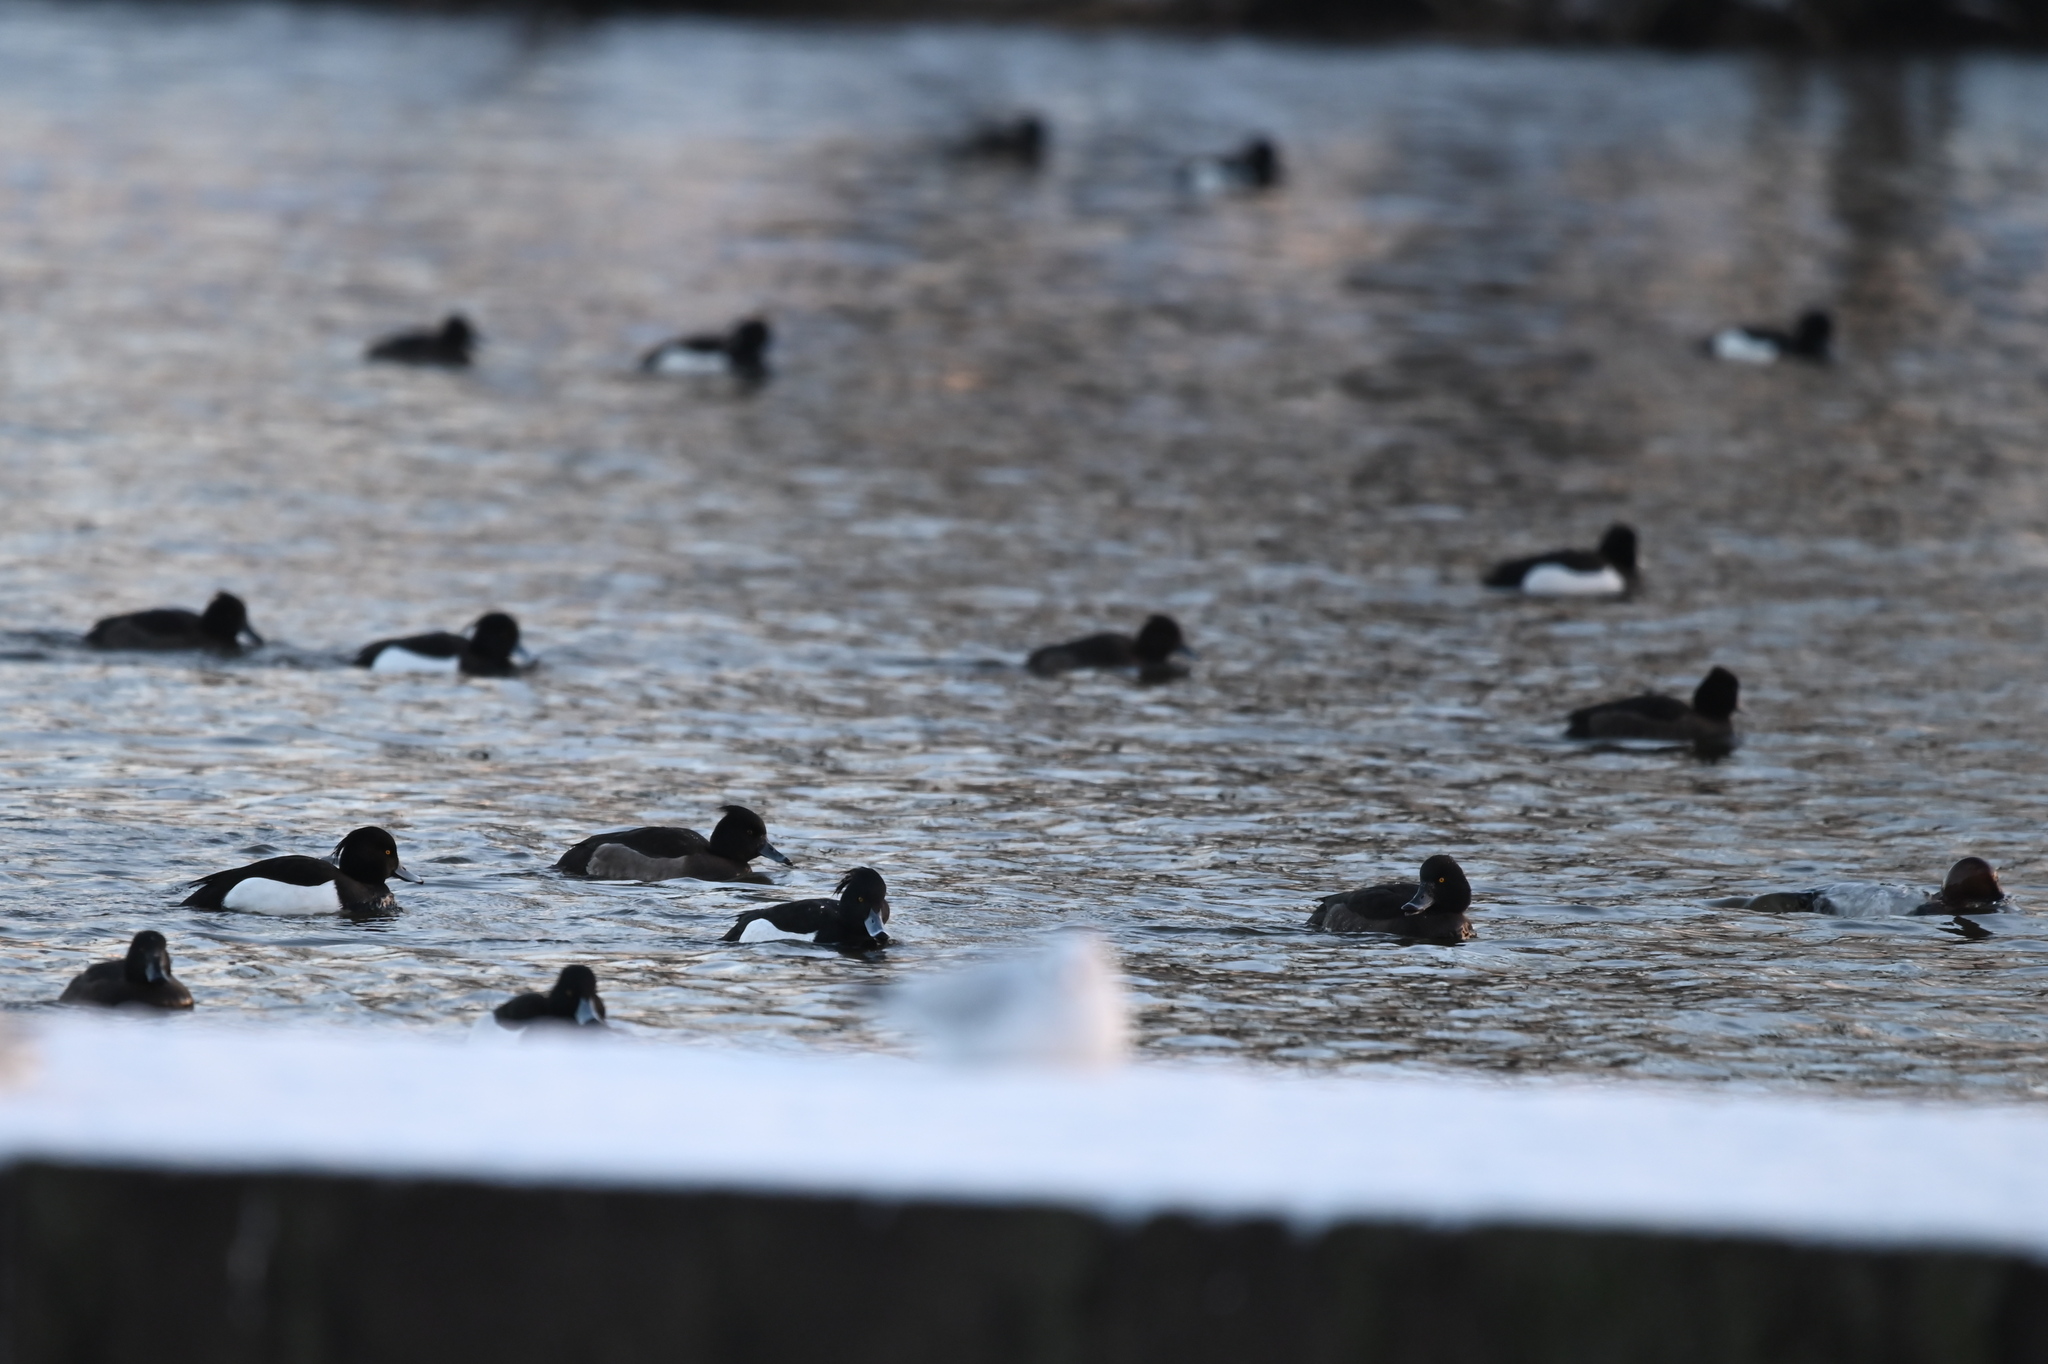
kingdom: Animalia
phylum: Chordata
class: Aves
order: Anseriformes
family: Anatidae
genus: Aythya
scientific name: Aythya fuligula
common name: Tufted duck
